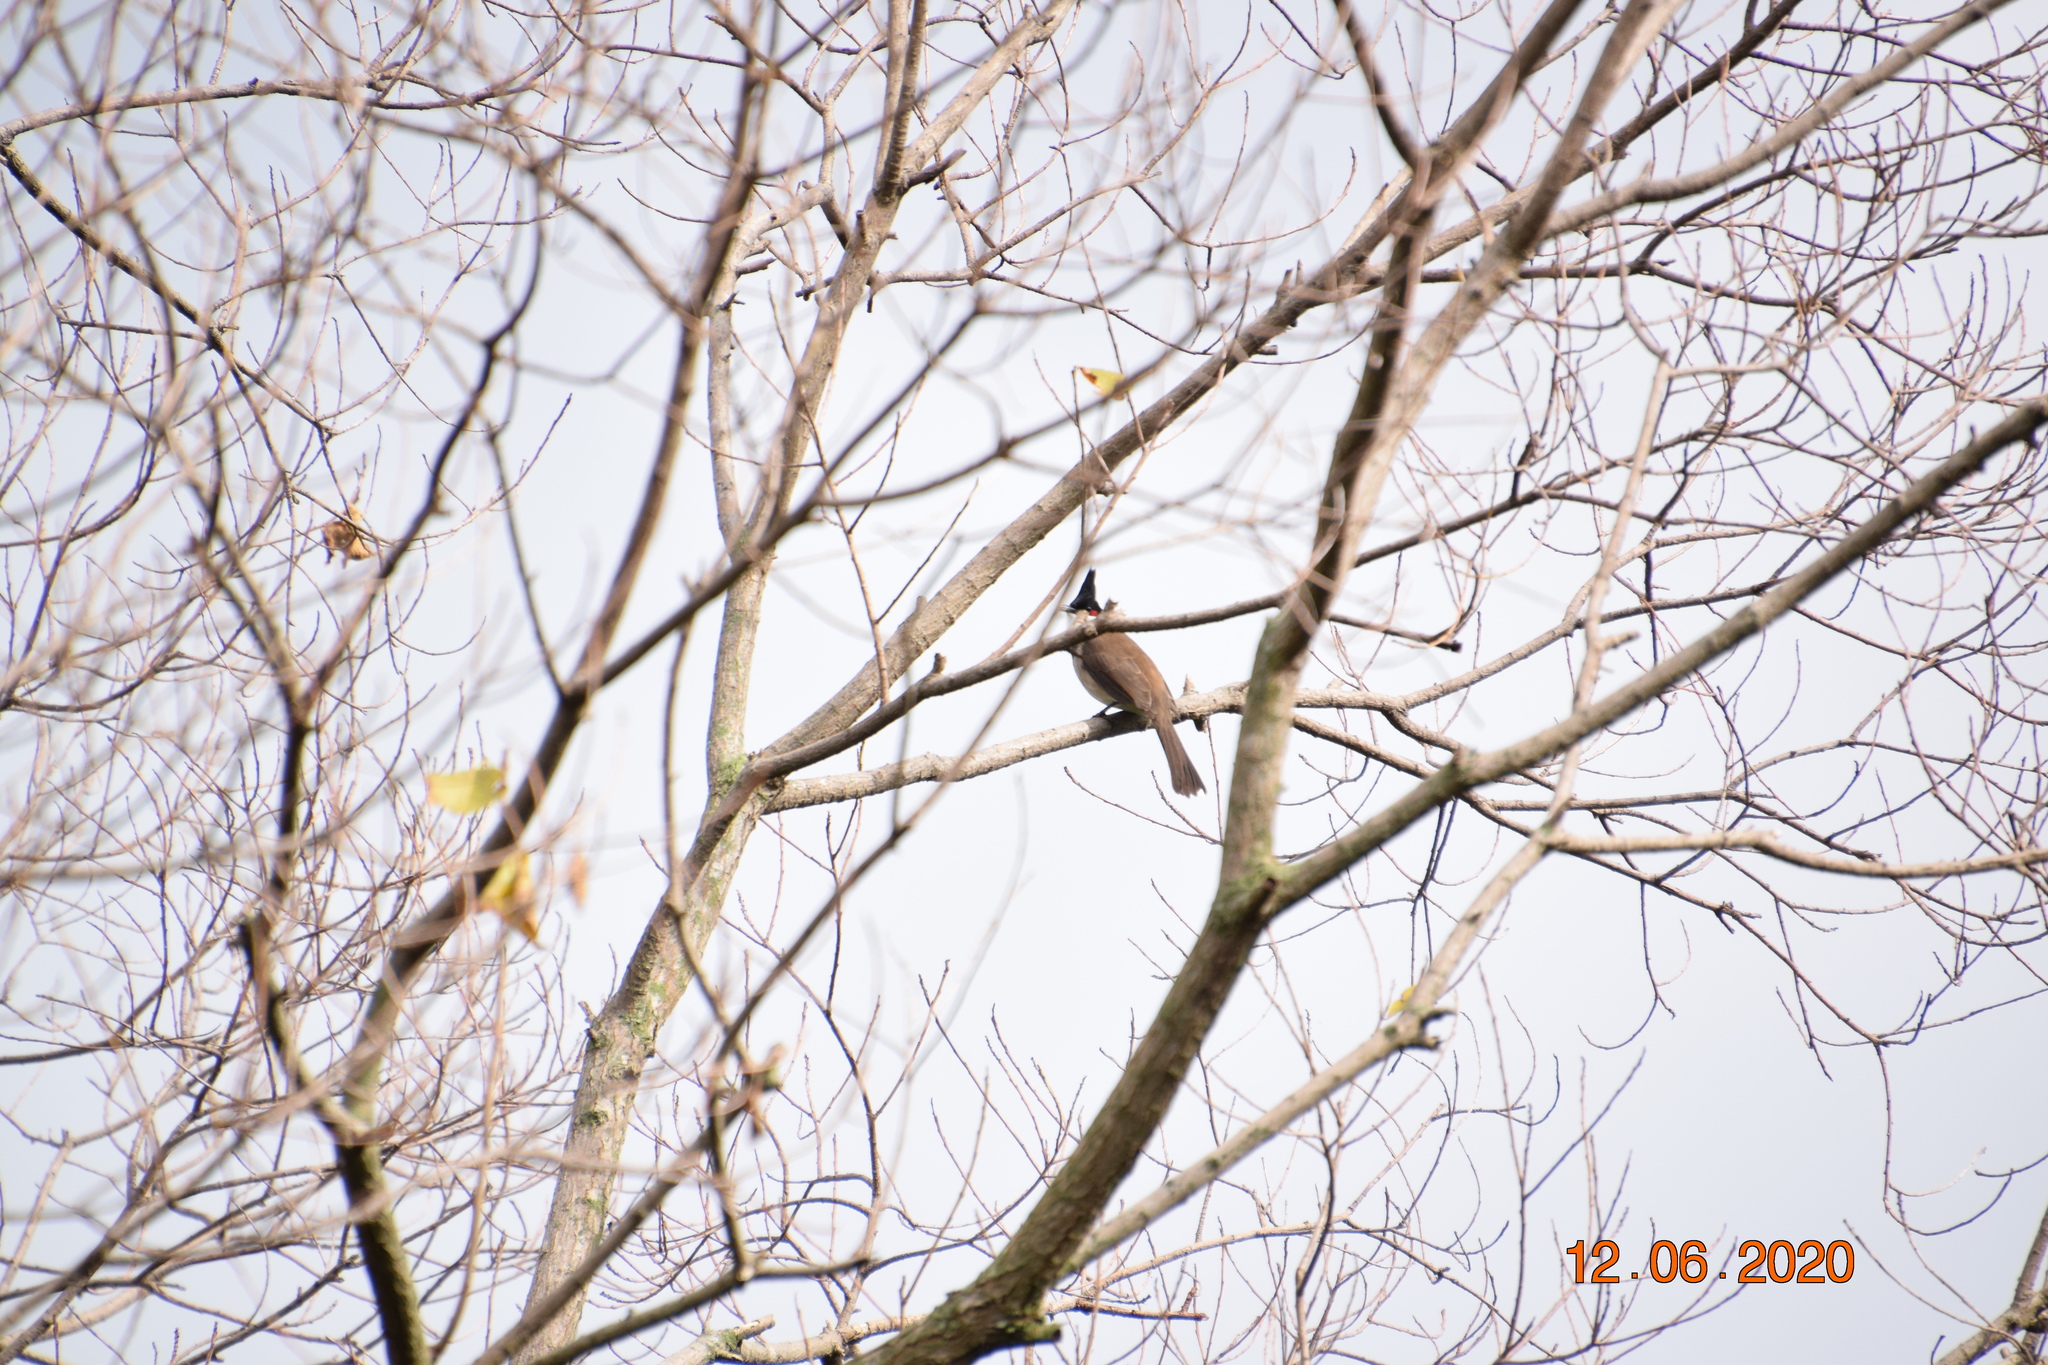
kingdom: Animalia
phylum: Chordata
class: Aves
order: Passeriformes
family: Pycnonotidae
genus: Pycnonotus
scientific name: Pycnonotus jocosus
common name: Red-whiskered bulbul
